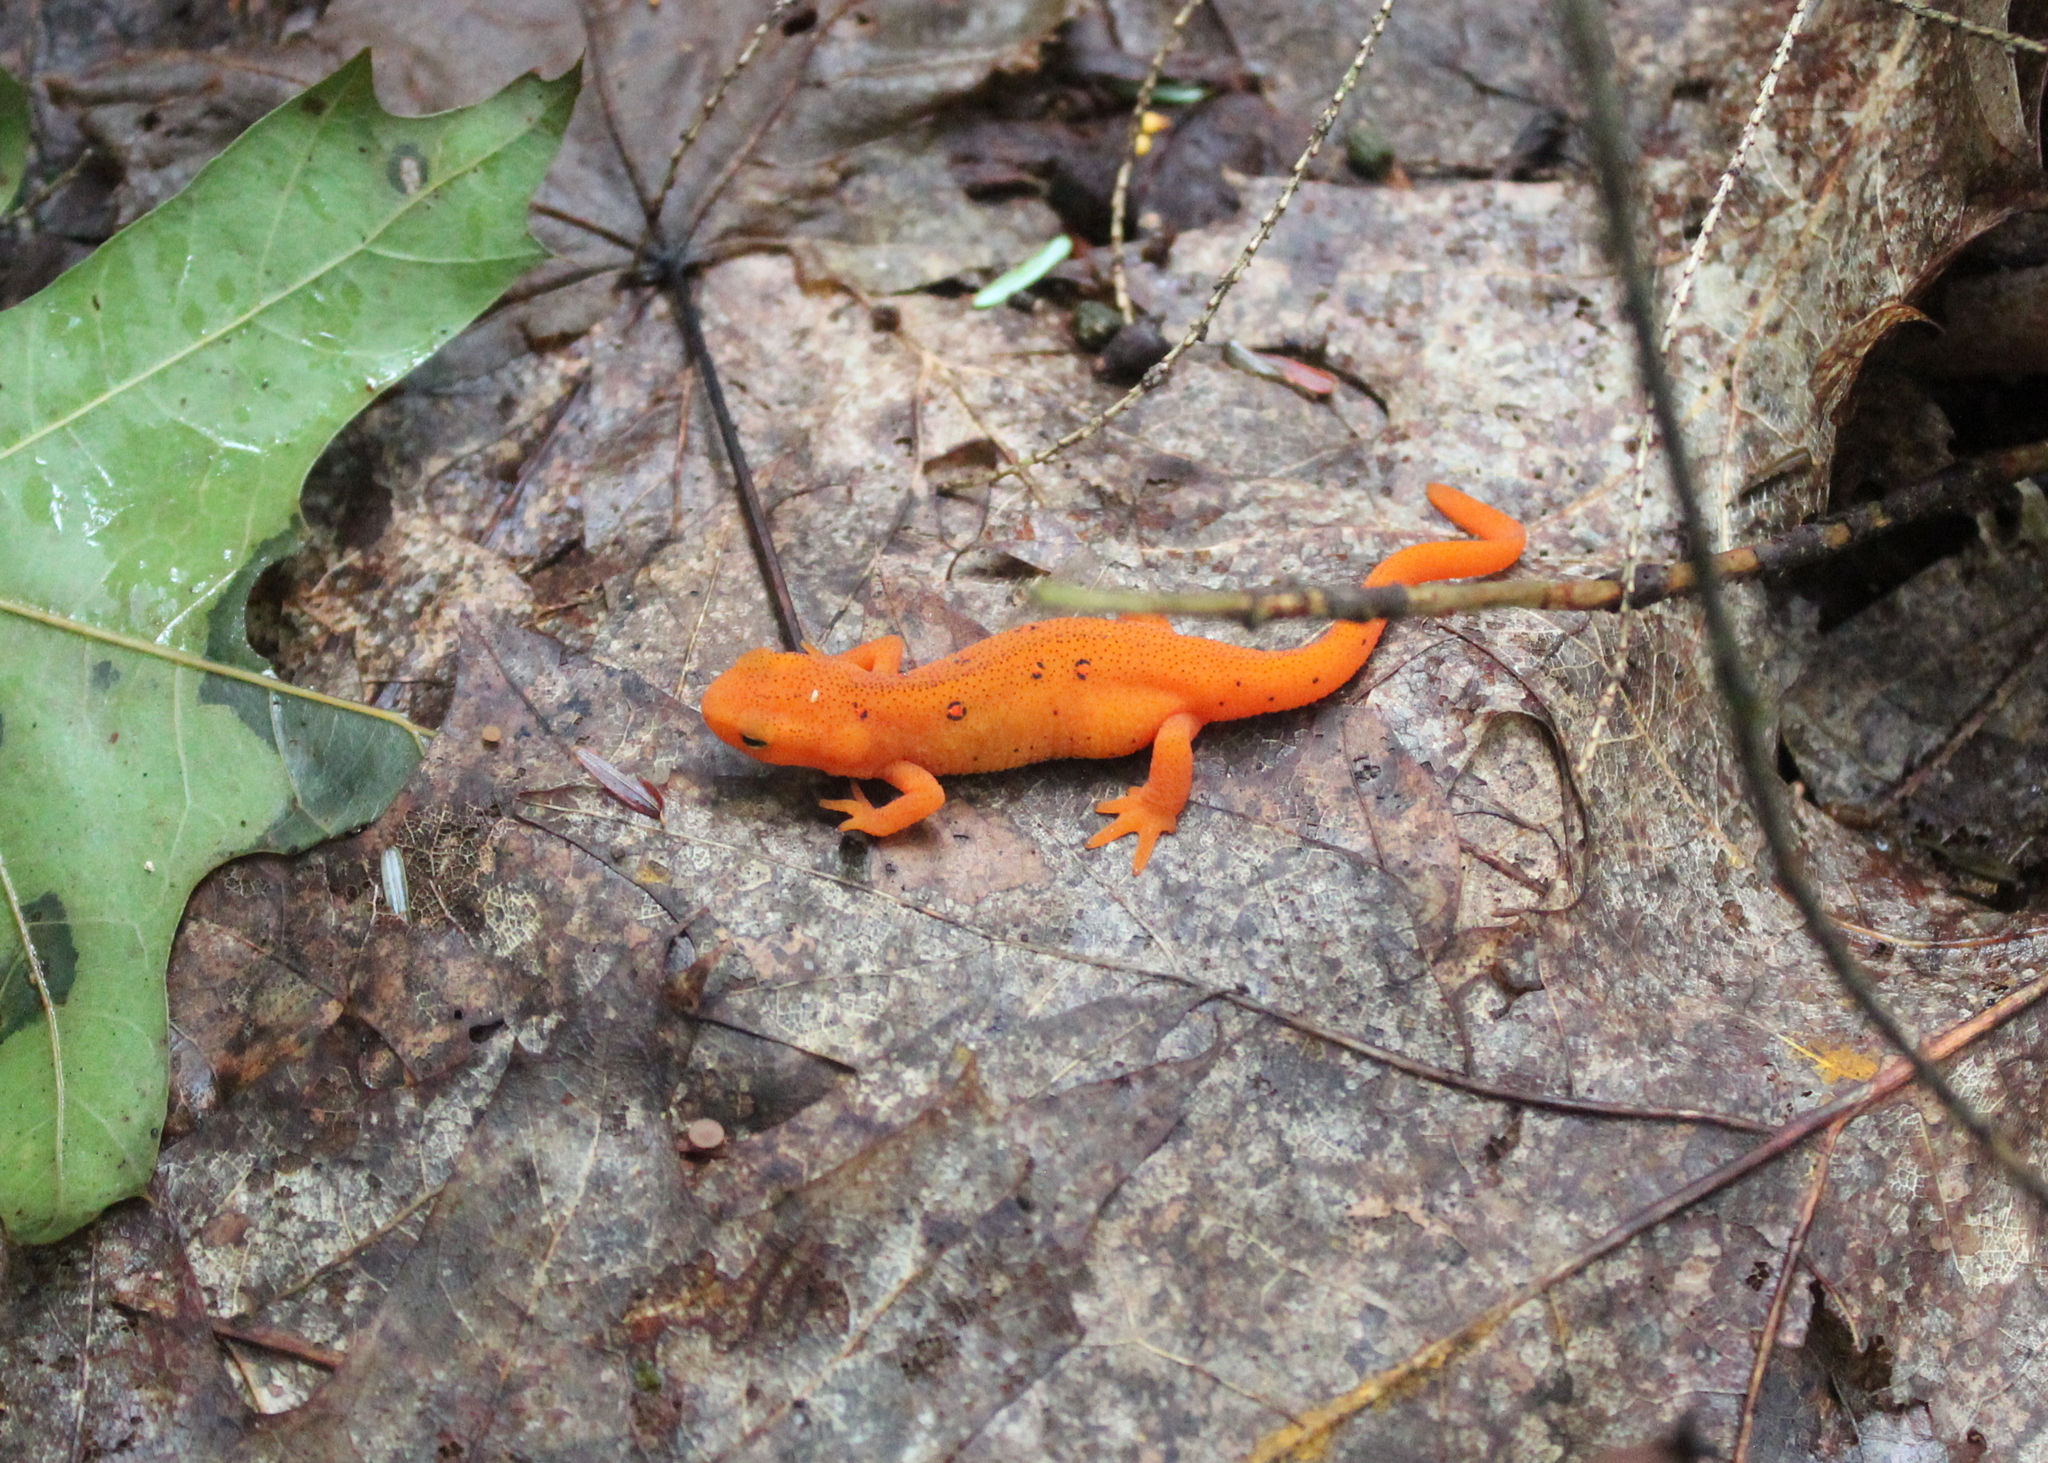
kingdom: Animalia
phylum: Chordata
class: Amphibia
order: Caudata
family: Salamandridae
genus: Notophthalmus
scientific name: Notophthalmus viridescens
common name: Eastern newt
